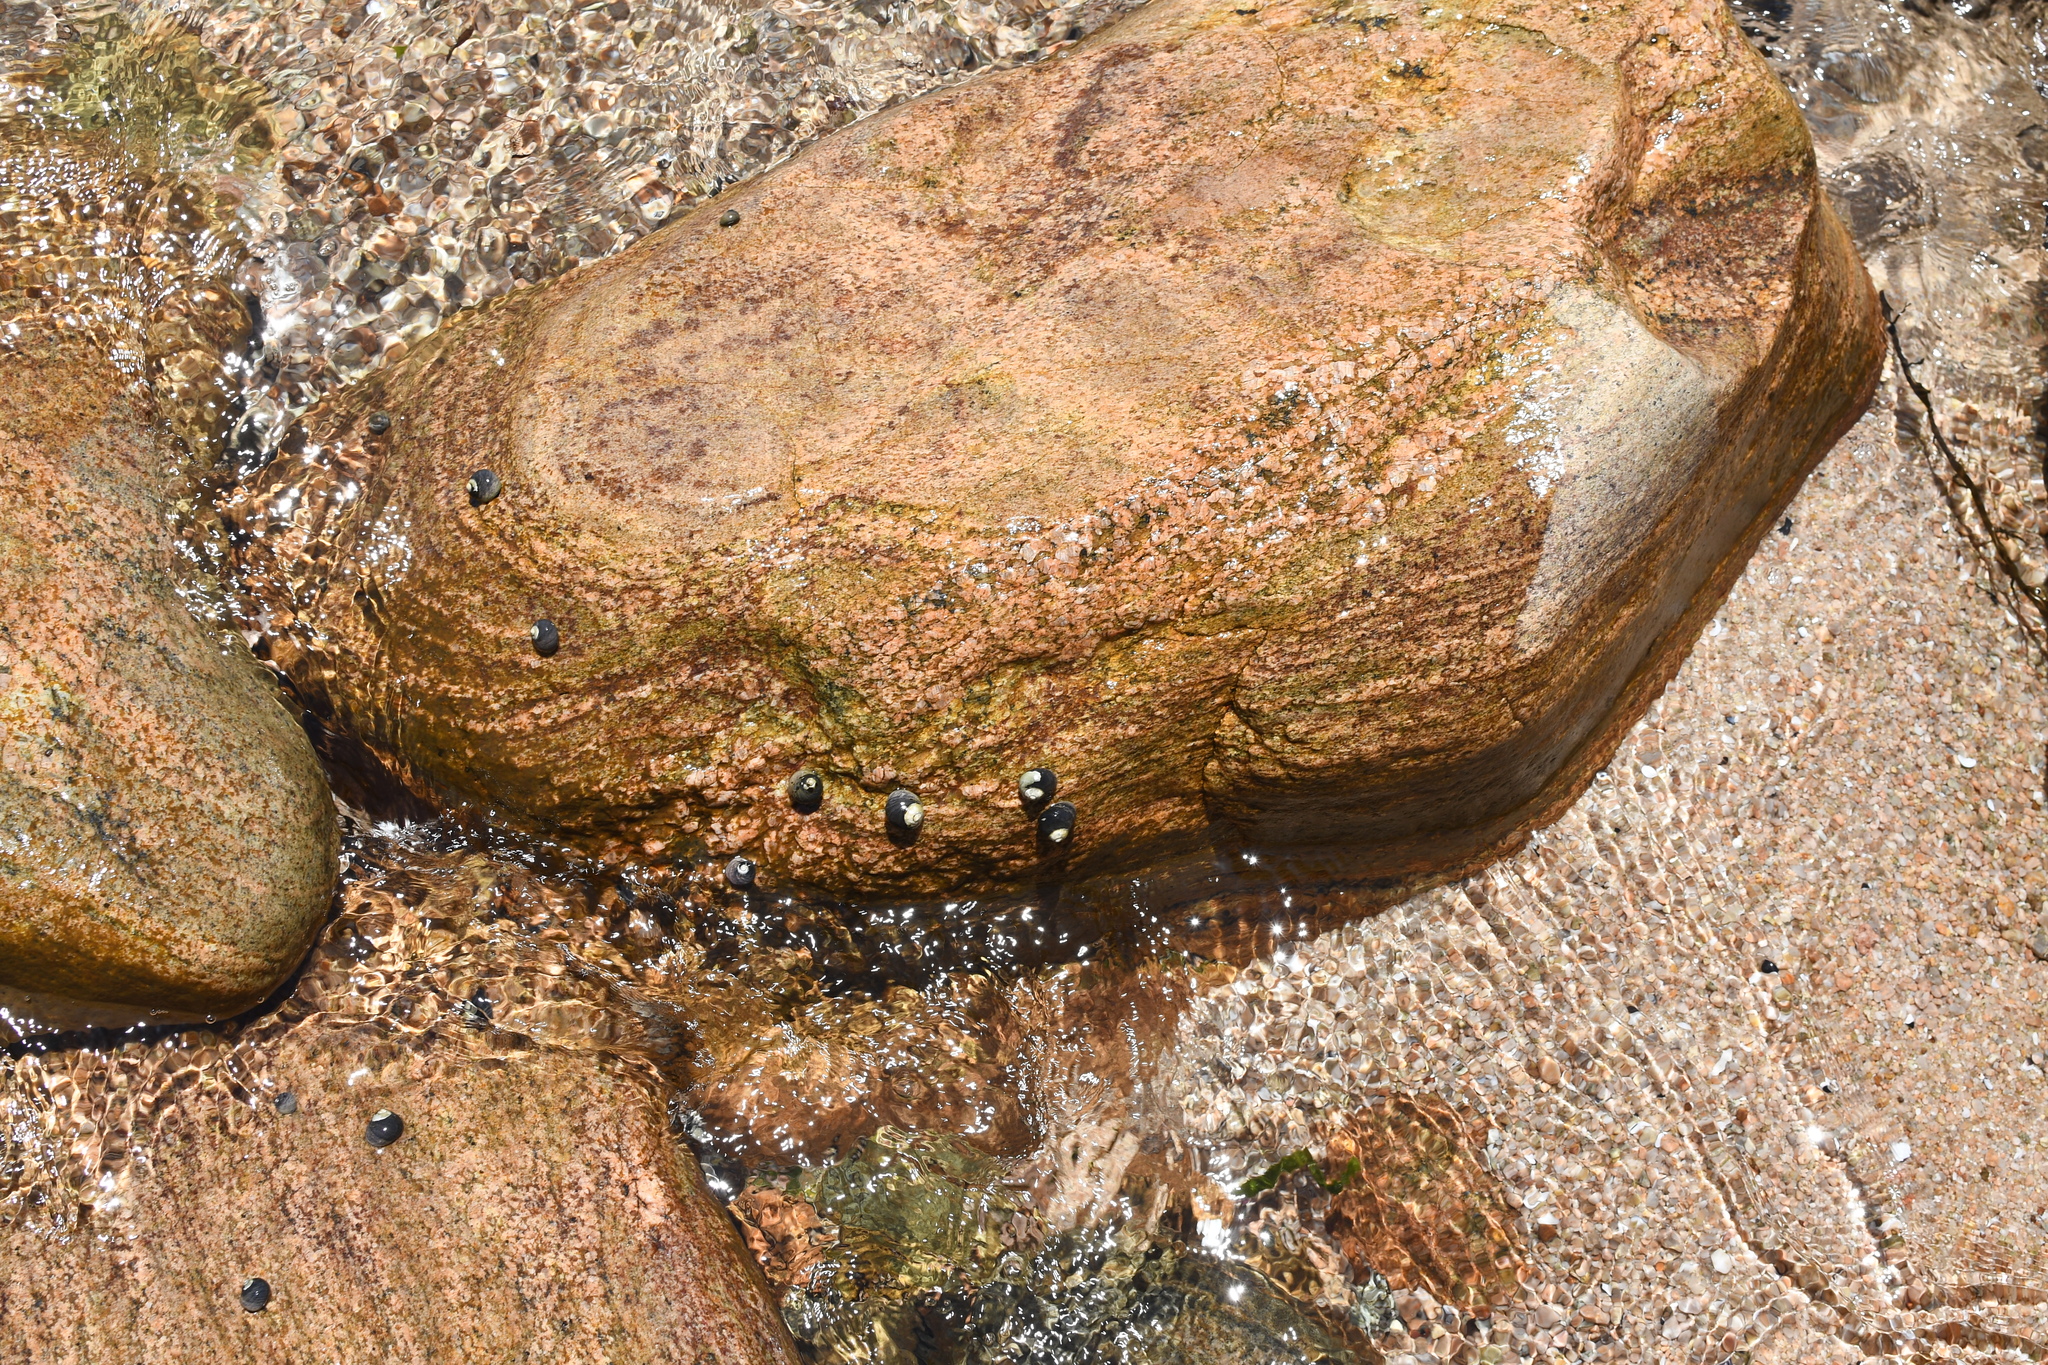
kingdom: Animalia
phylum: Mollusca
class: Gastropoda
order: Trochida
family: Trochidae
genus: Austrocochlea
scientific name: Austrocochlea rudis
